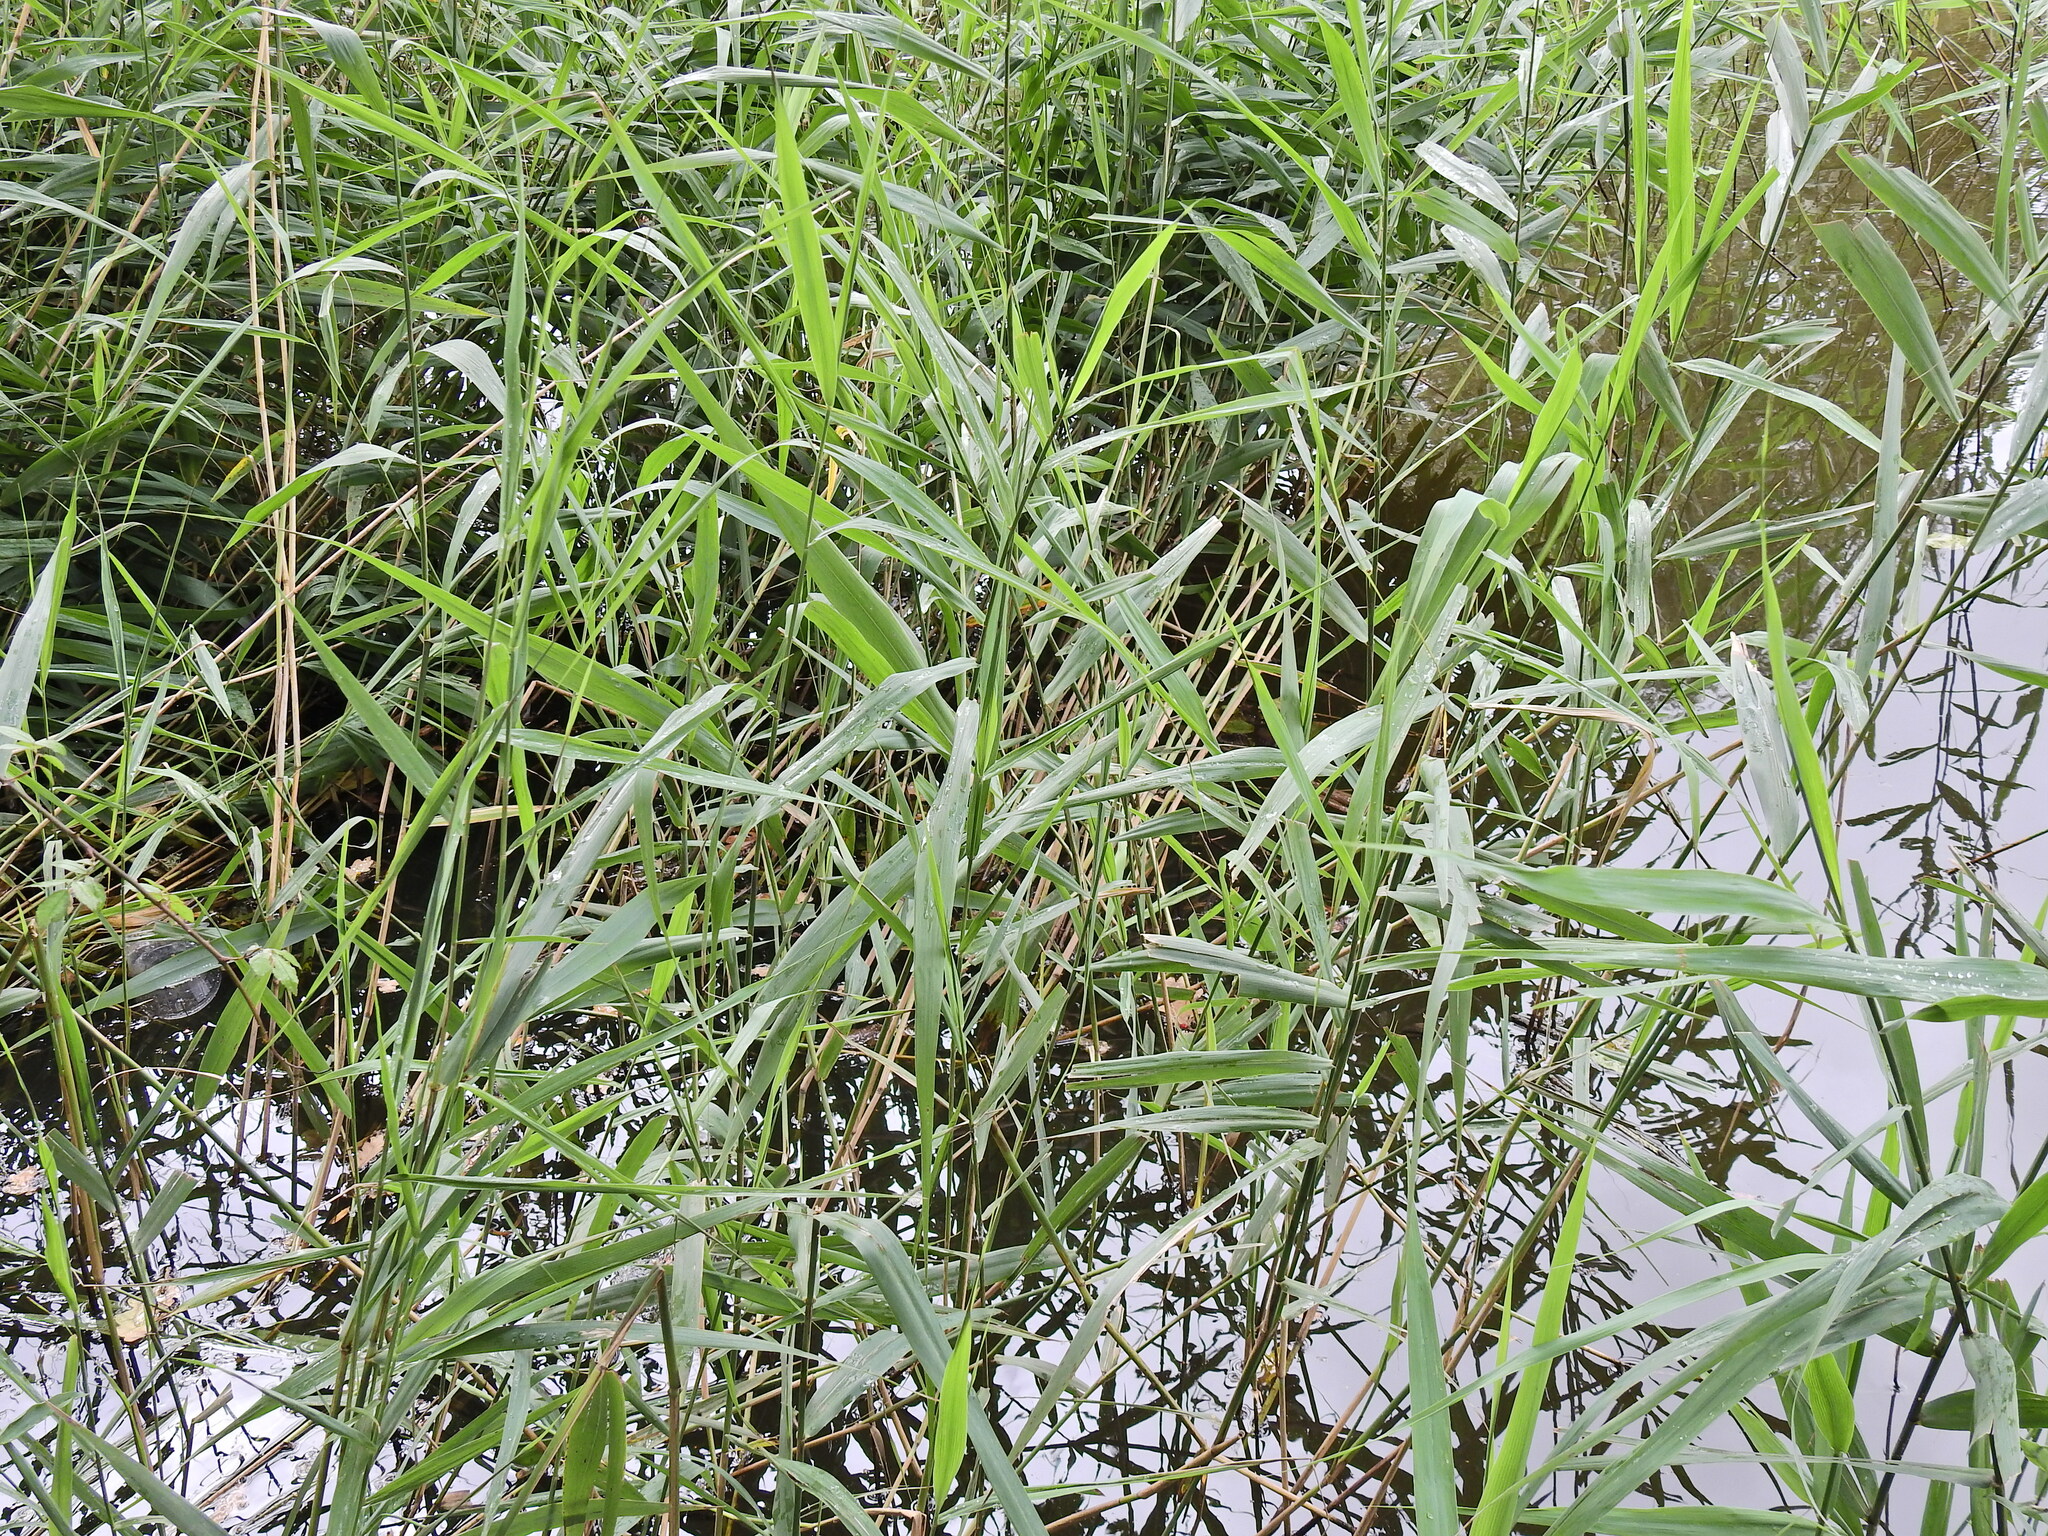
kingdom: Plantae
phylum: Tracheophyta
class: Liliopsida
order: Poales
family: Poaceae
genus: Phragmites
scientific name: Phragmites australis
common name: Common reed
